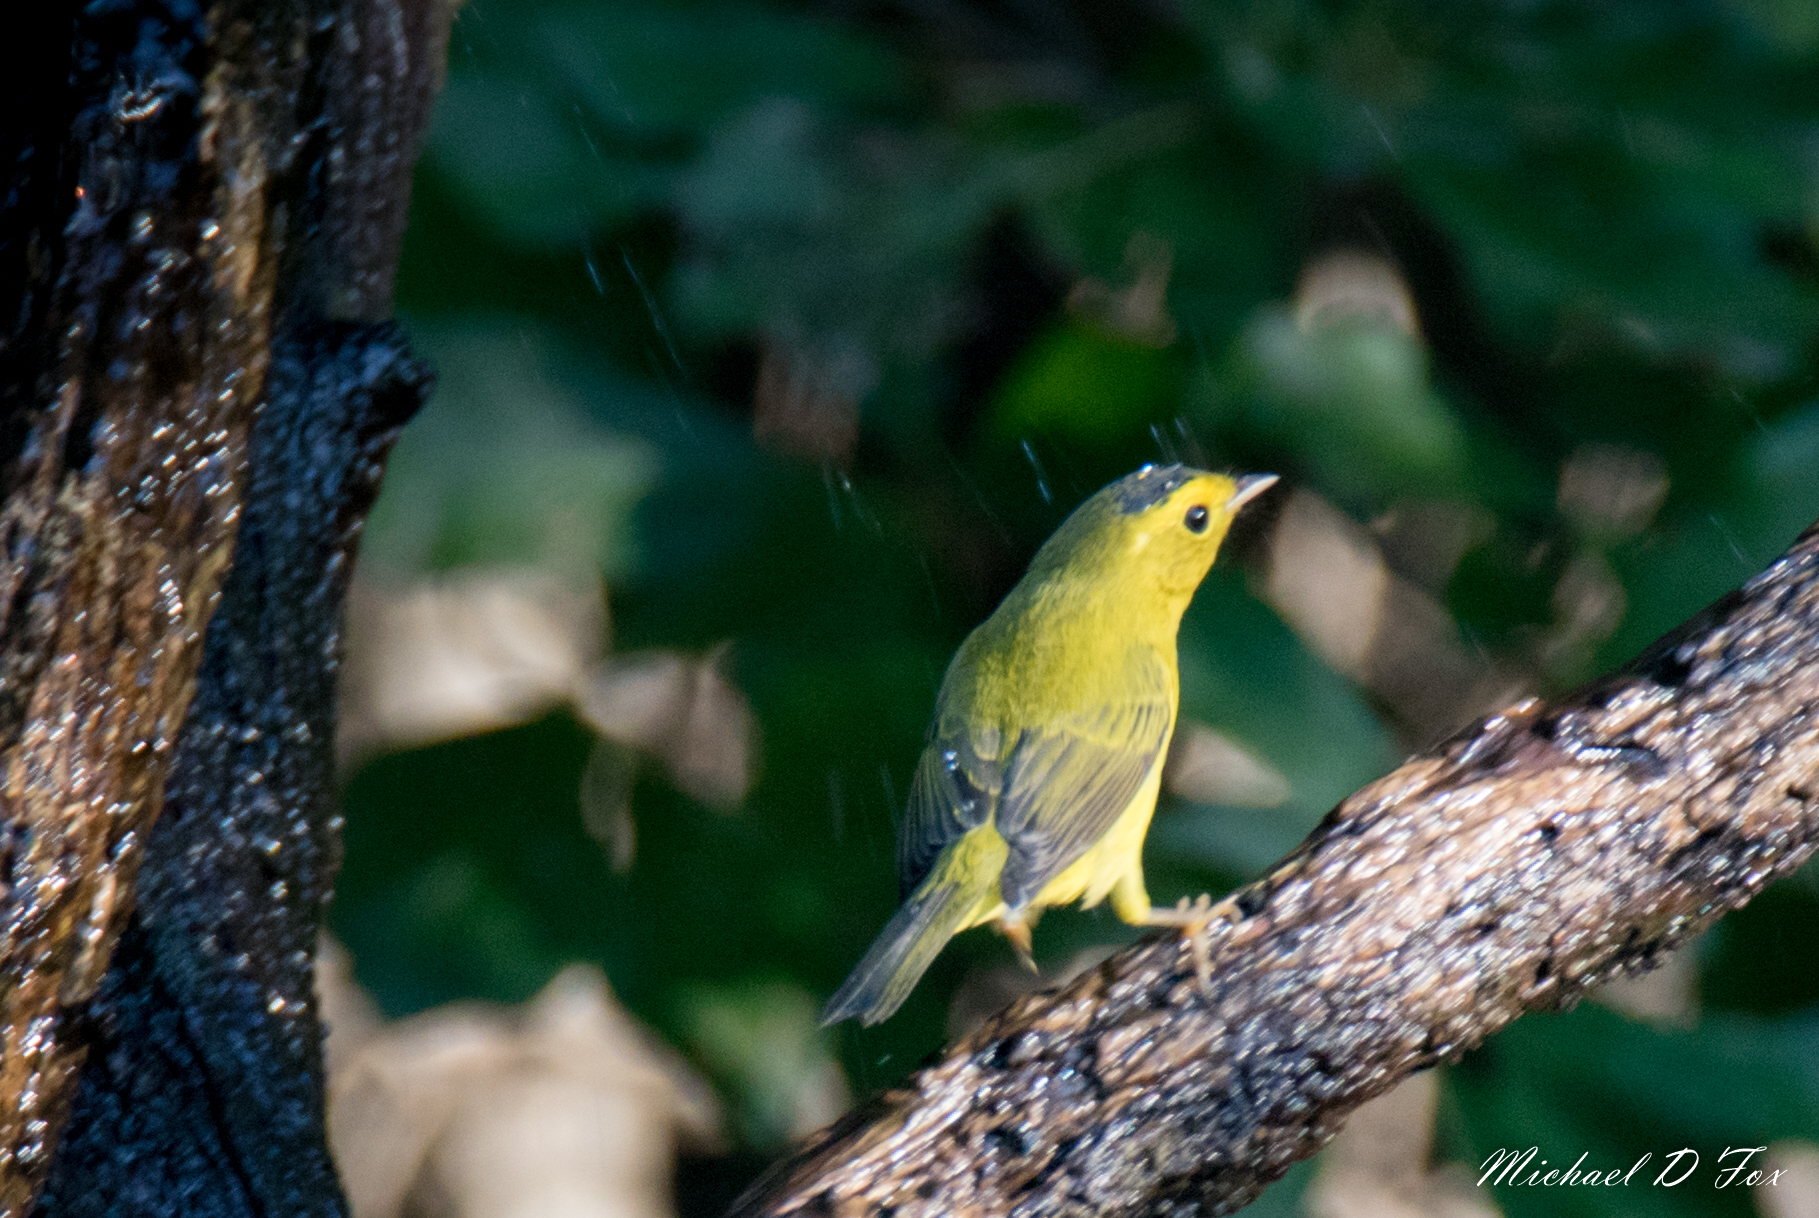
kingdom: Animalia
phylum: Chordata
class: Aves
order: Passeriformes
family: Parulidae
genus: Cardellina
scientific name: Cardellina pusilla
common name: Wilson's warbler
